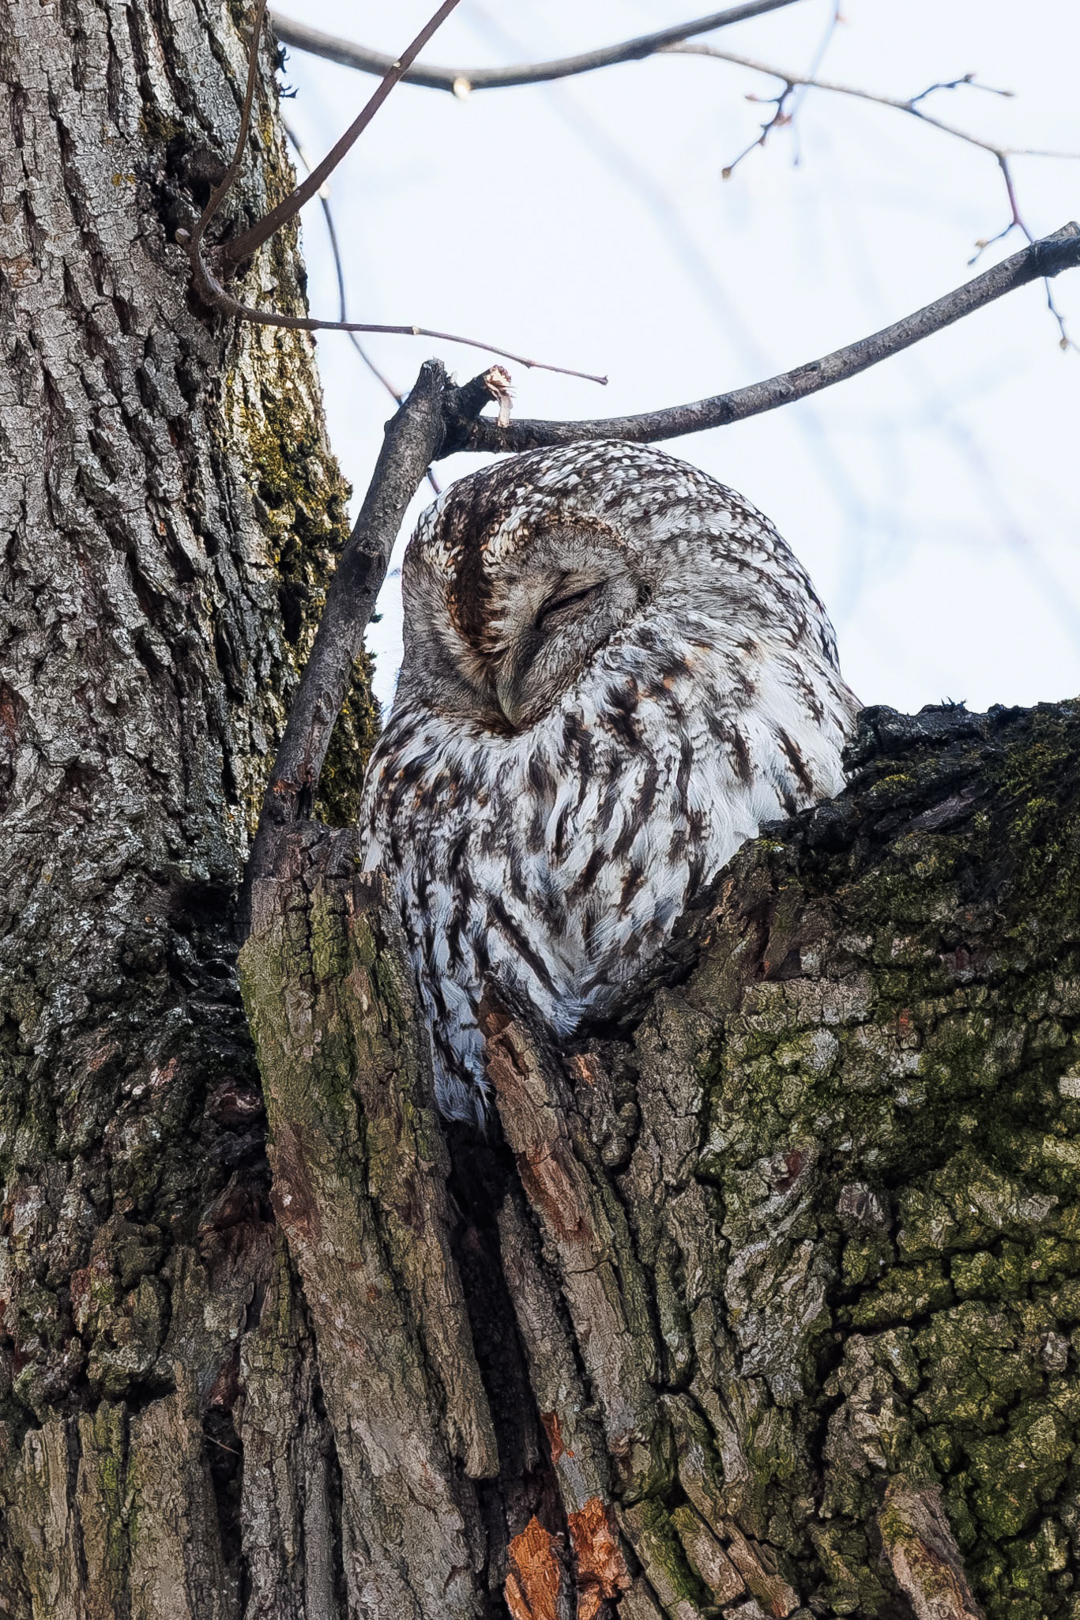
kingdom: Animalia
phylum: Chordata
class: Aves
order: Strigiformes
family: Strigidae
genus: Strix
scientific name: Strix aluco
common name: Tawny owl
